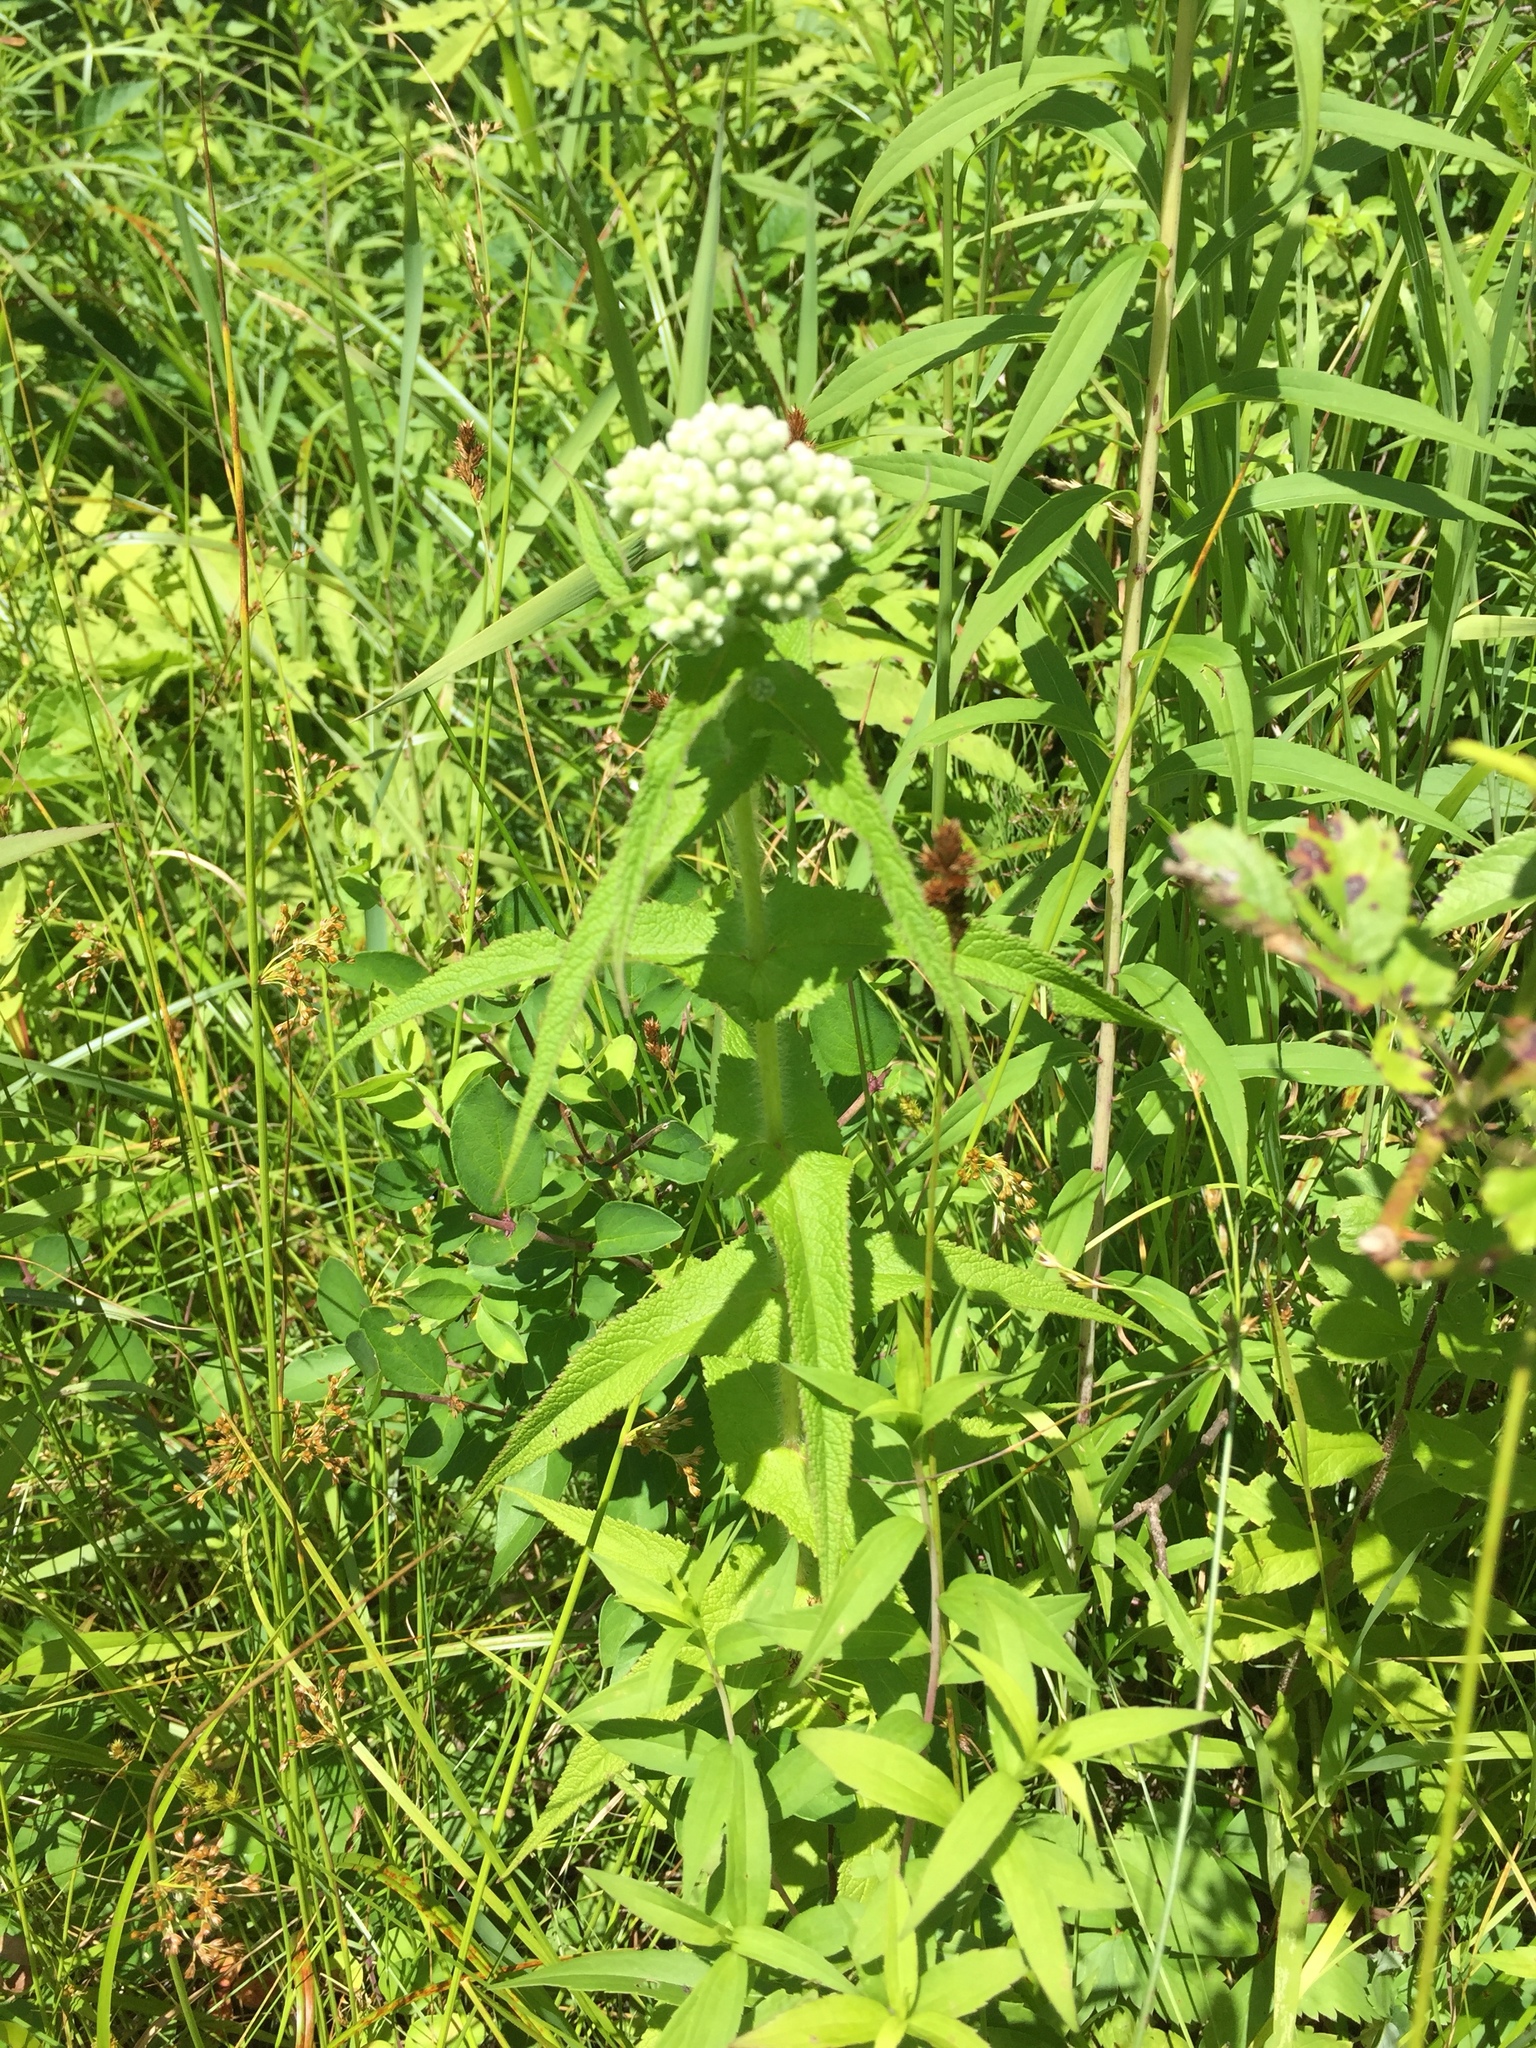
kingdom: Plantae
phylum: Tracheophyta
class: Magnoliopsida
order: Asterales
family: Asteraceae
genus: Eupatorium
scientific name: Eupatorium perfoliatum
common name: Boneset
